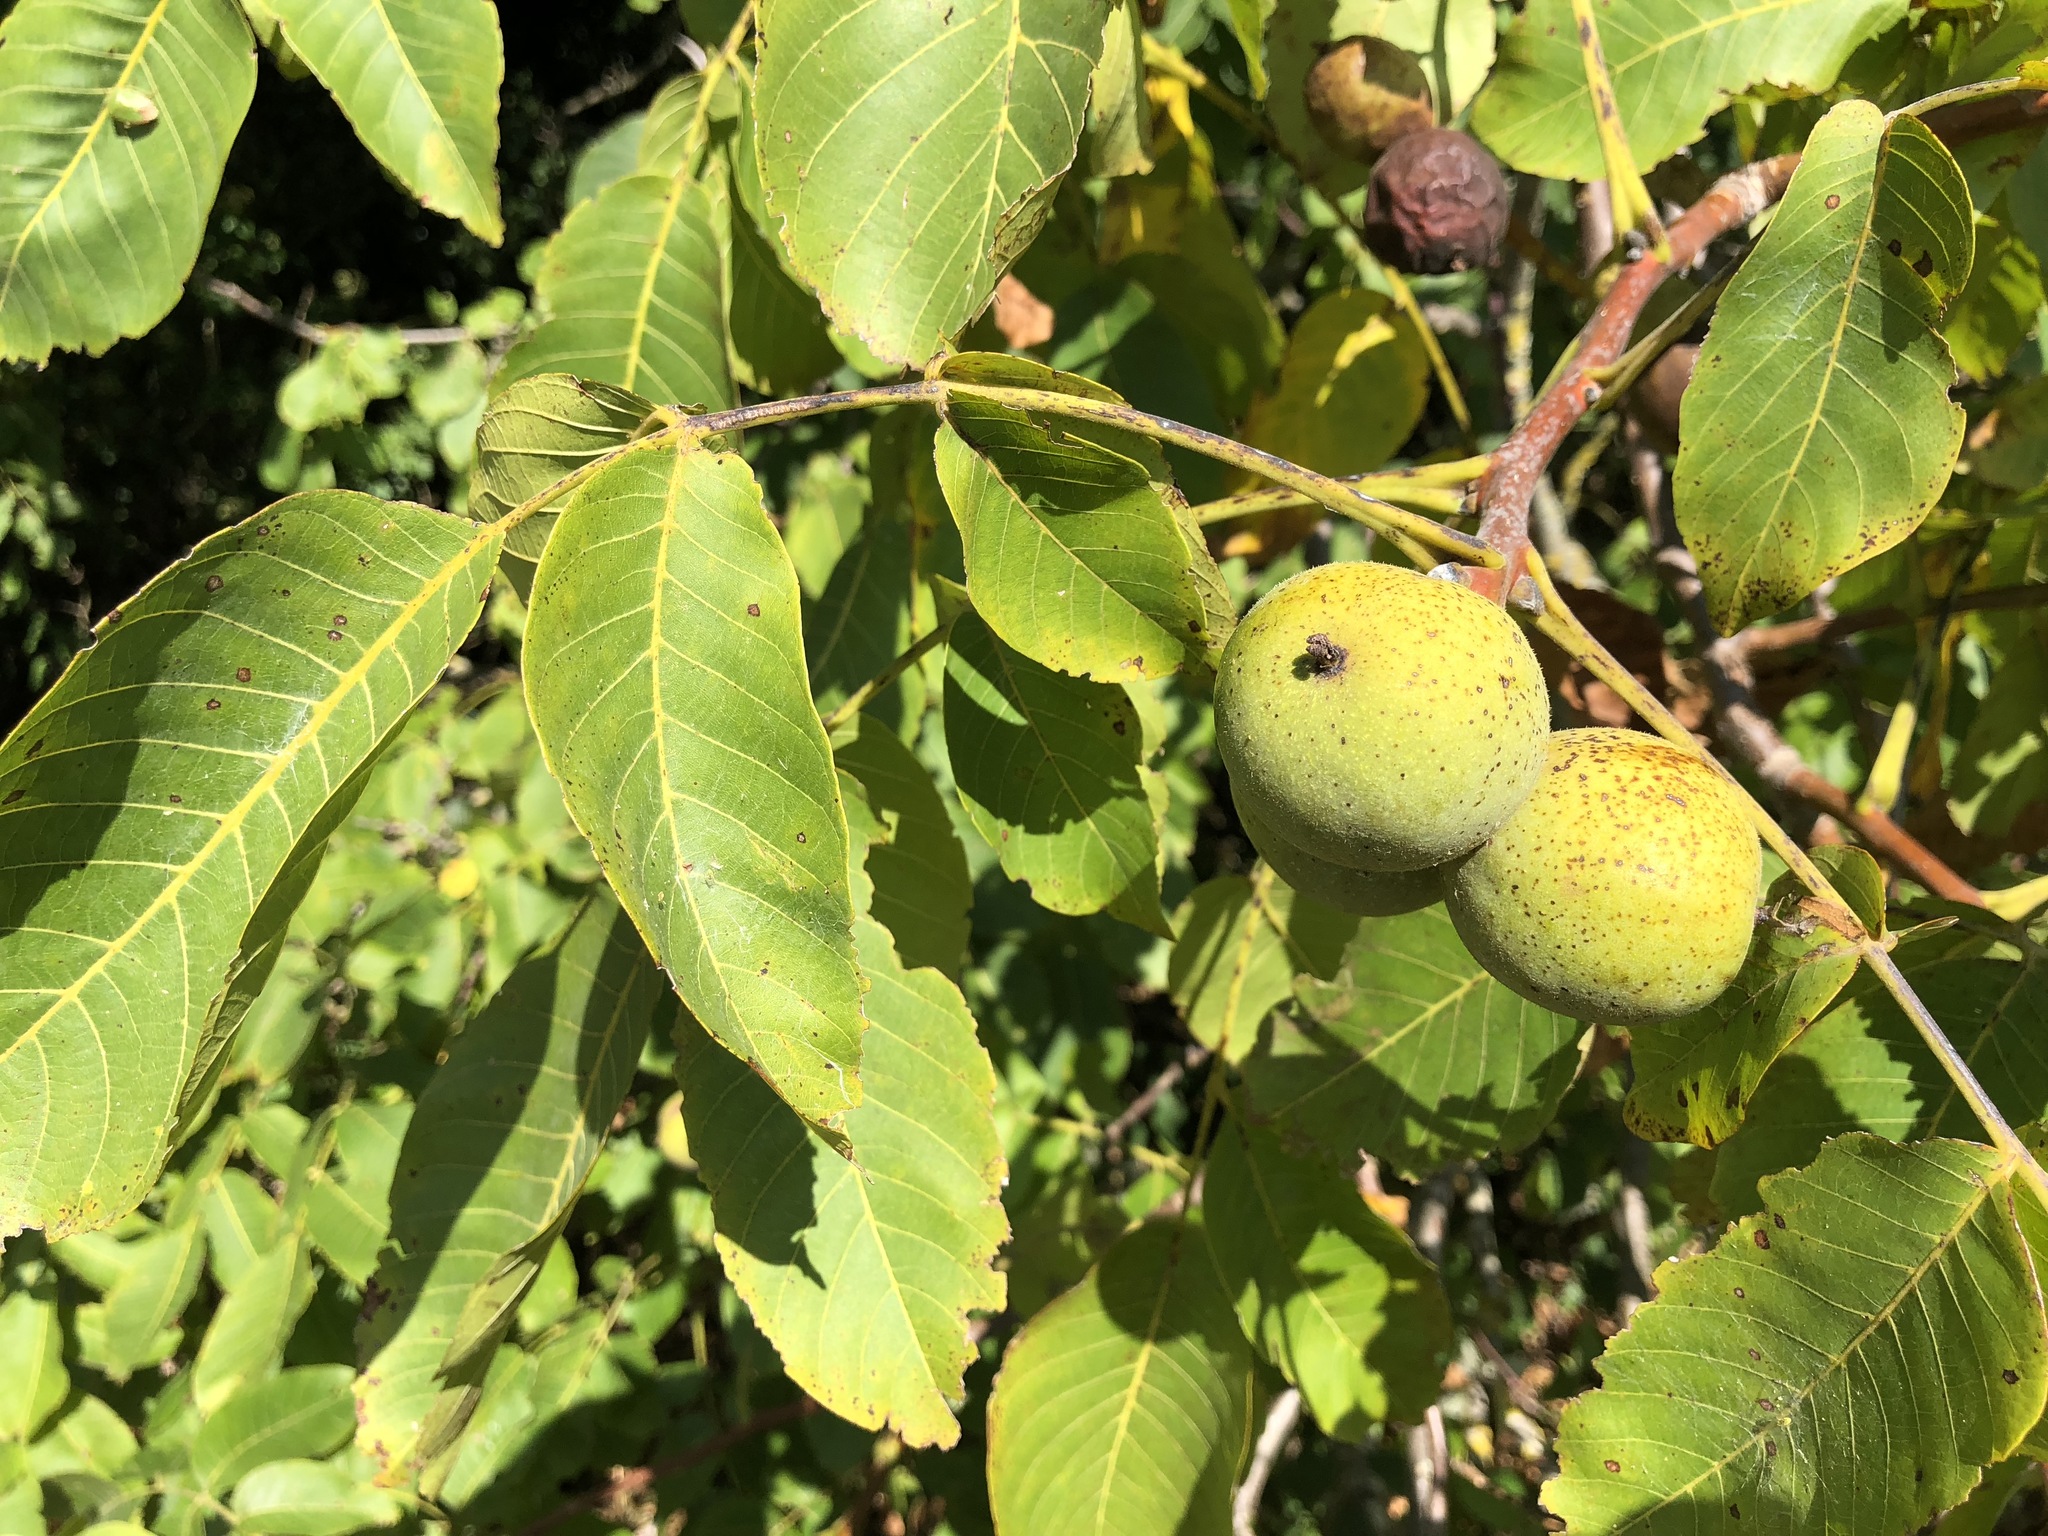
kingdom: Plantae
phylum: Tracheophyta
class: Magnoliopsida
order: Fagales
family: Juglandaceae
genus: Juglans
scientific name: Juglans regia
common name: Walnut
